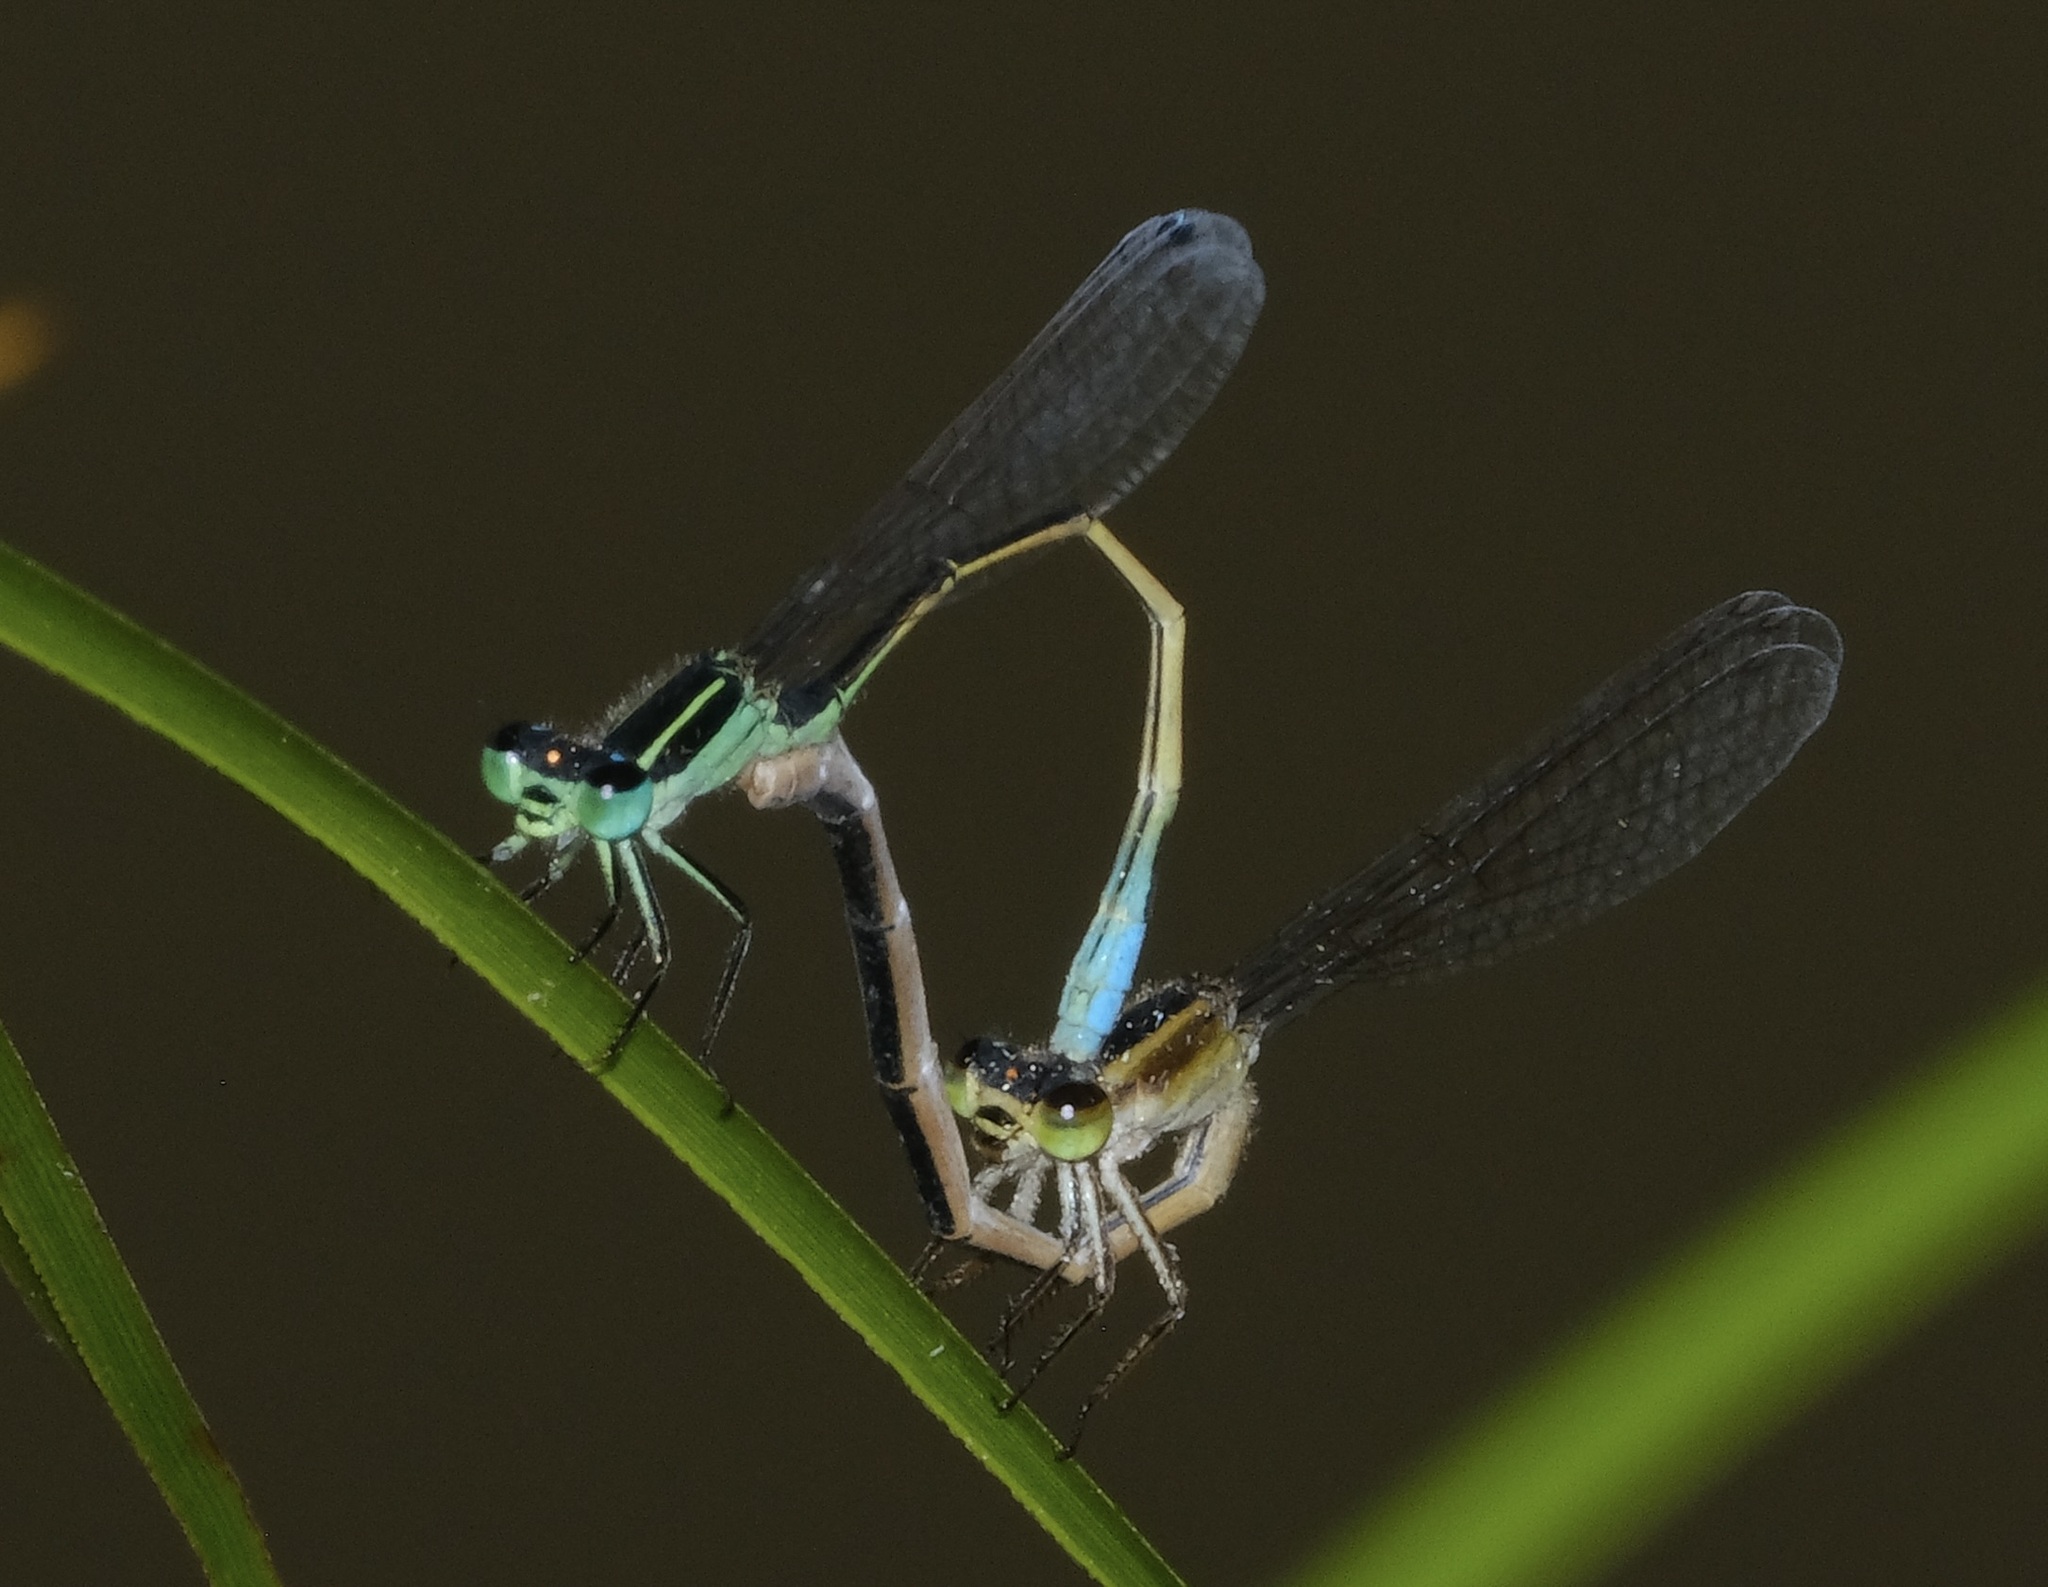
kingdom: Animalia
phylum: Arthropoda
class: Insecta
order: Odonata
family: Coenagrionidae
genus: Ischnura
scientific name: Ischnura ramburii
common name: Rambur's forktail
